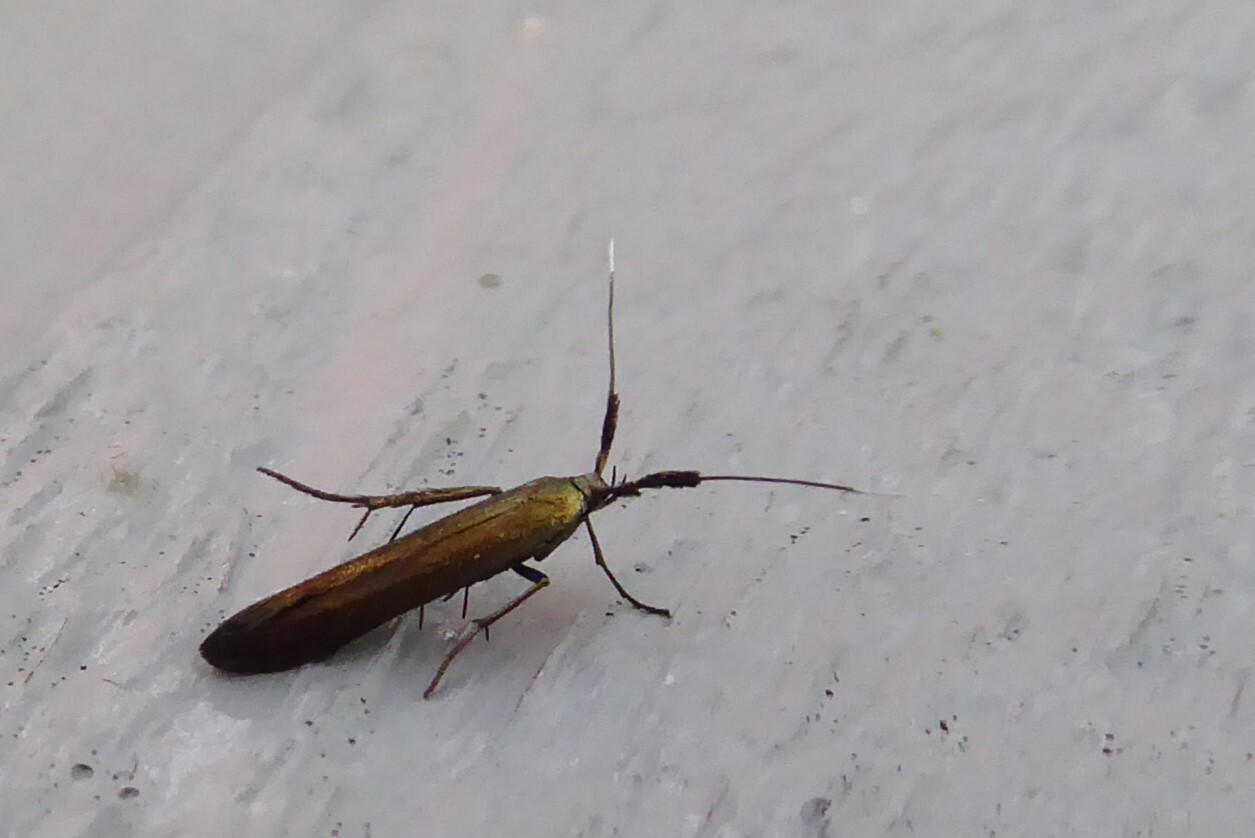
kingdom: Animalia
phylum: Arthropoda
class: Insecta
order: Lepidoptera
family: Coleophoridae
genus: Coleophora
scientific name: Coleophora deauratella
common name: Red-clover case-bearer
